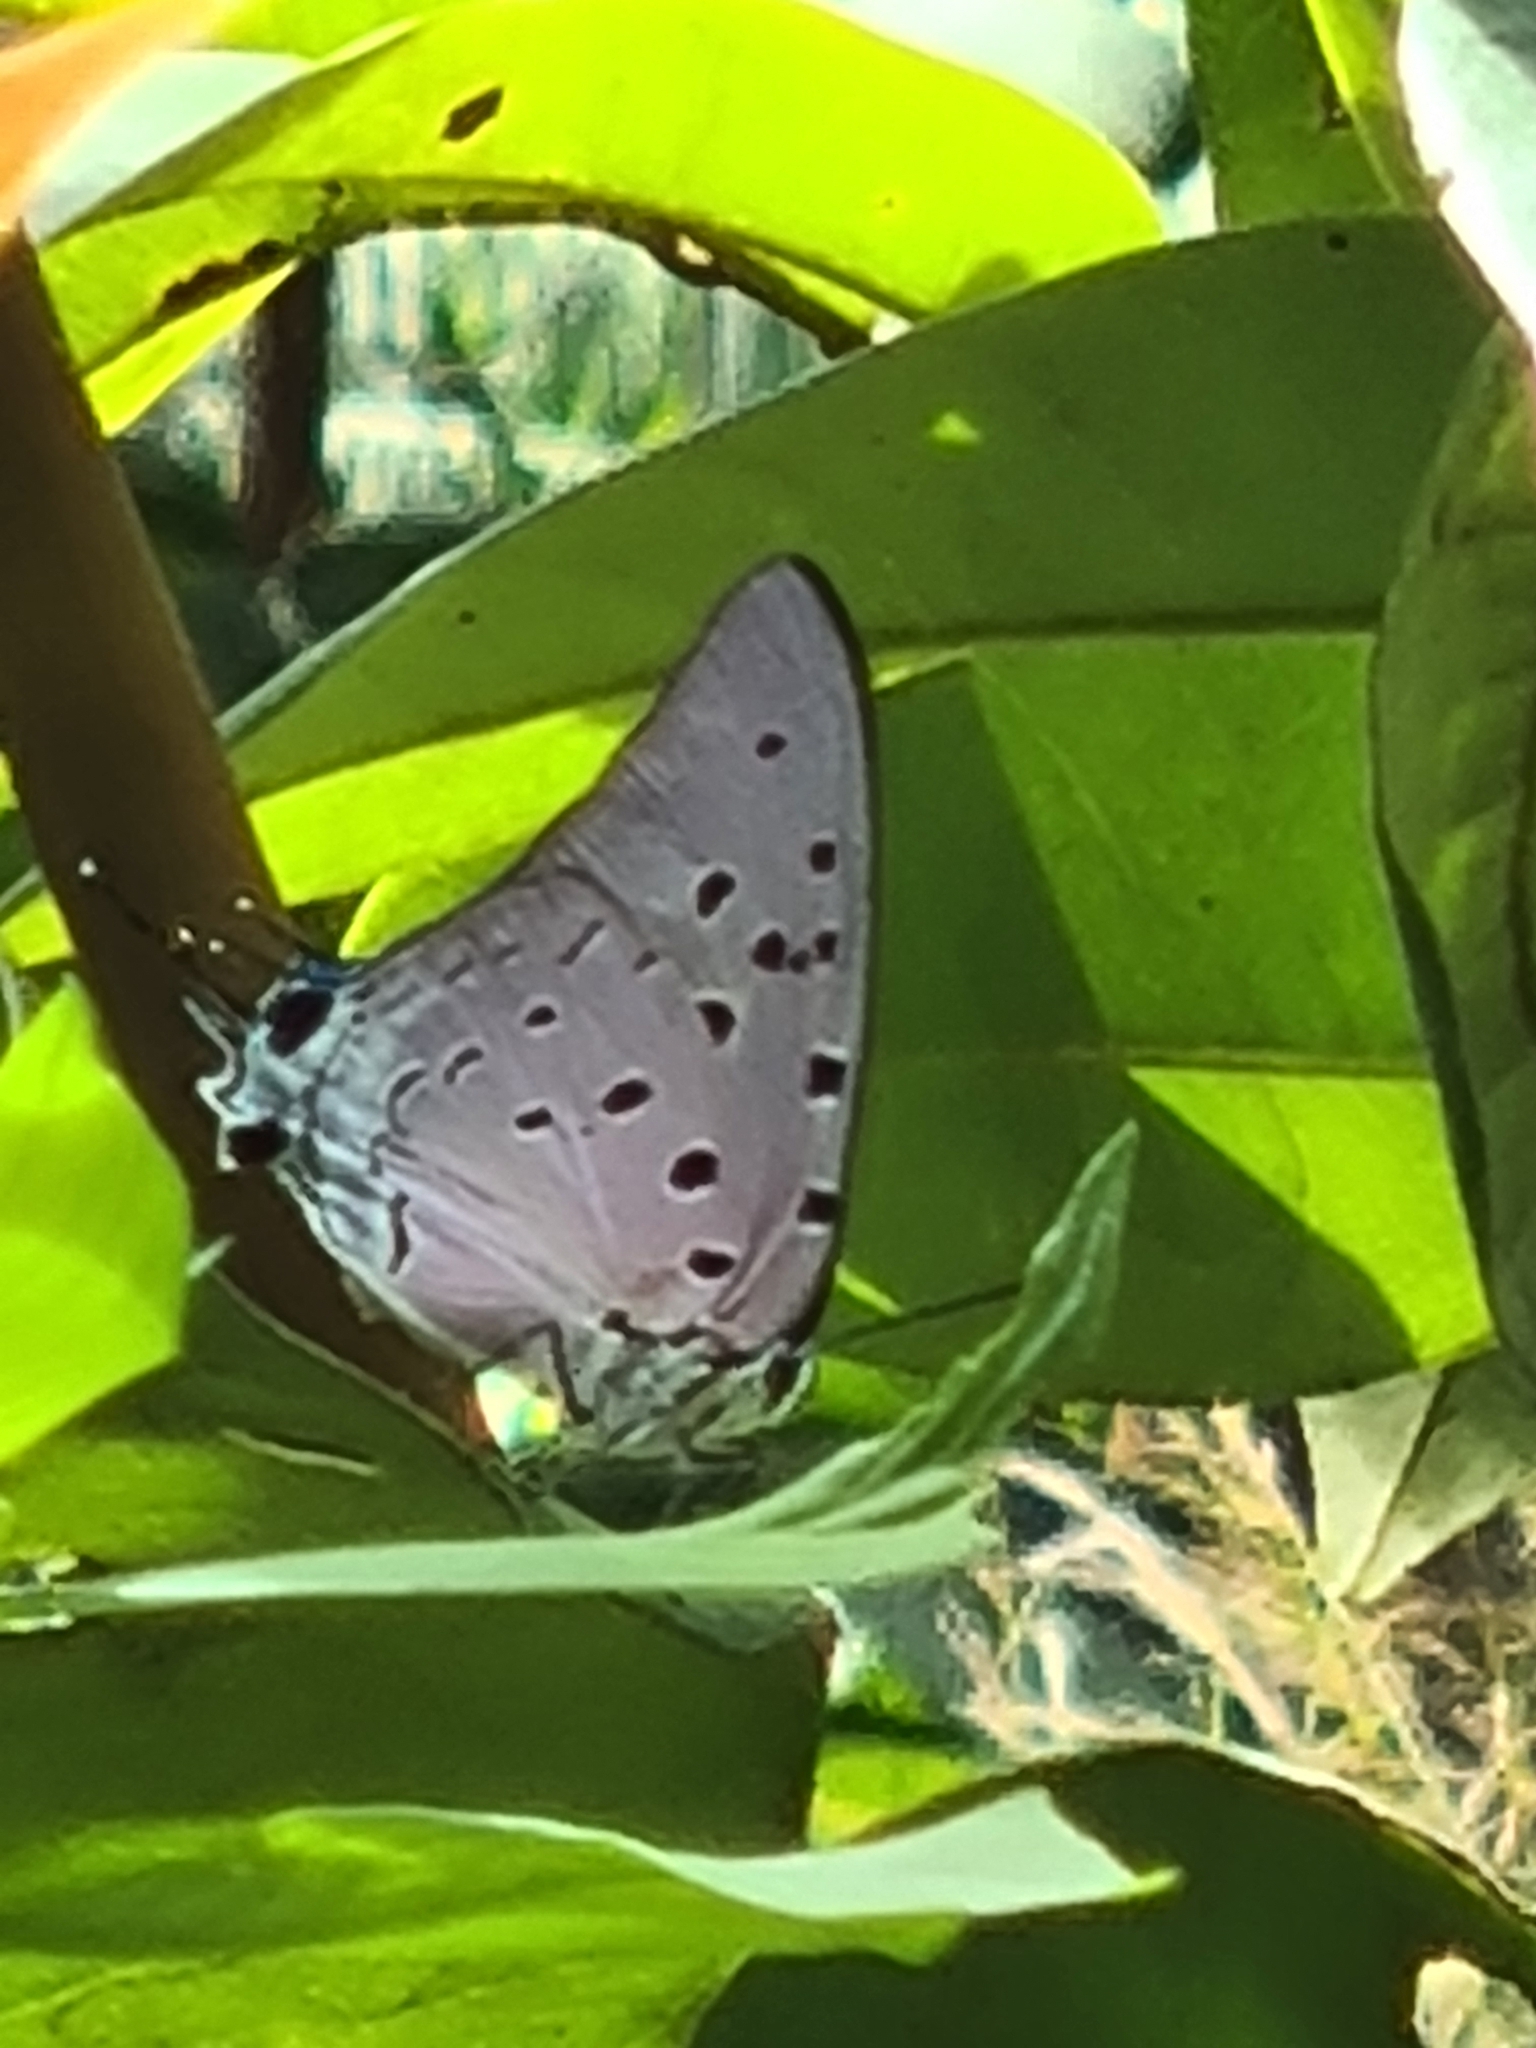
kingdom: Animalia
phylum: Arthropoda
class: Insecta
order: Lepidoptera
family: Lycaenidae
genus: Pseudolycaena
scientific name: Pseudolycaena marsyas
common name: Marsyas hairstreak
